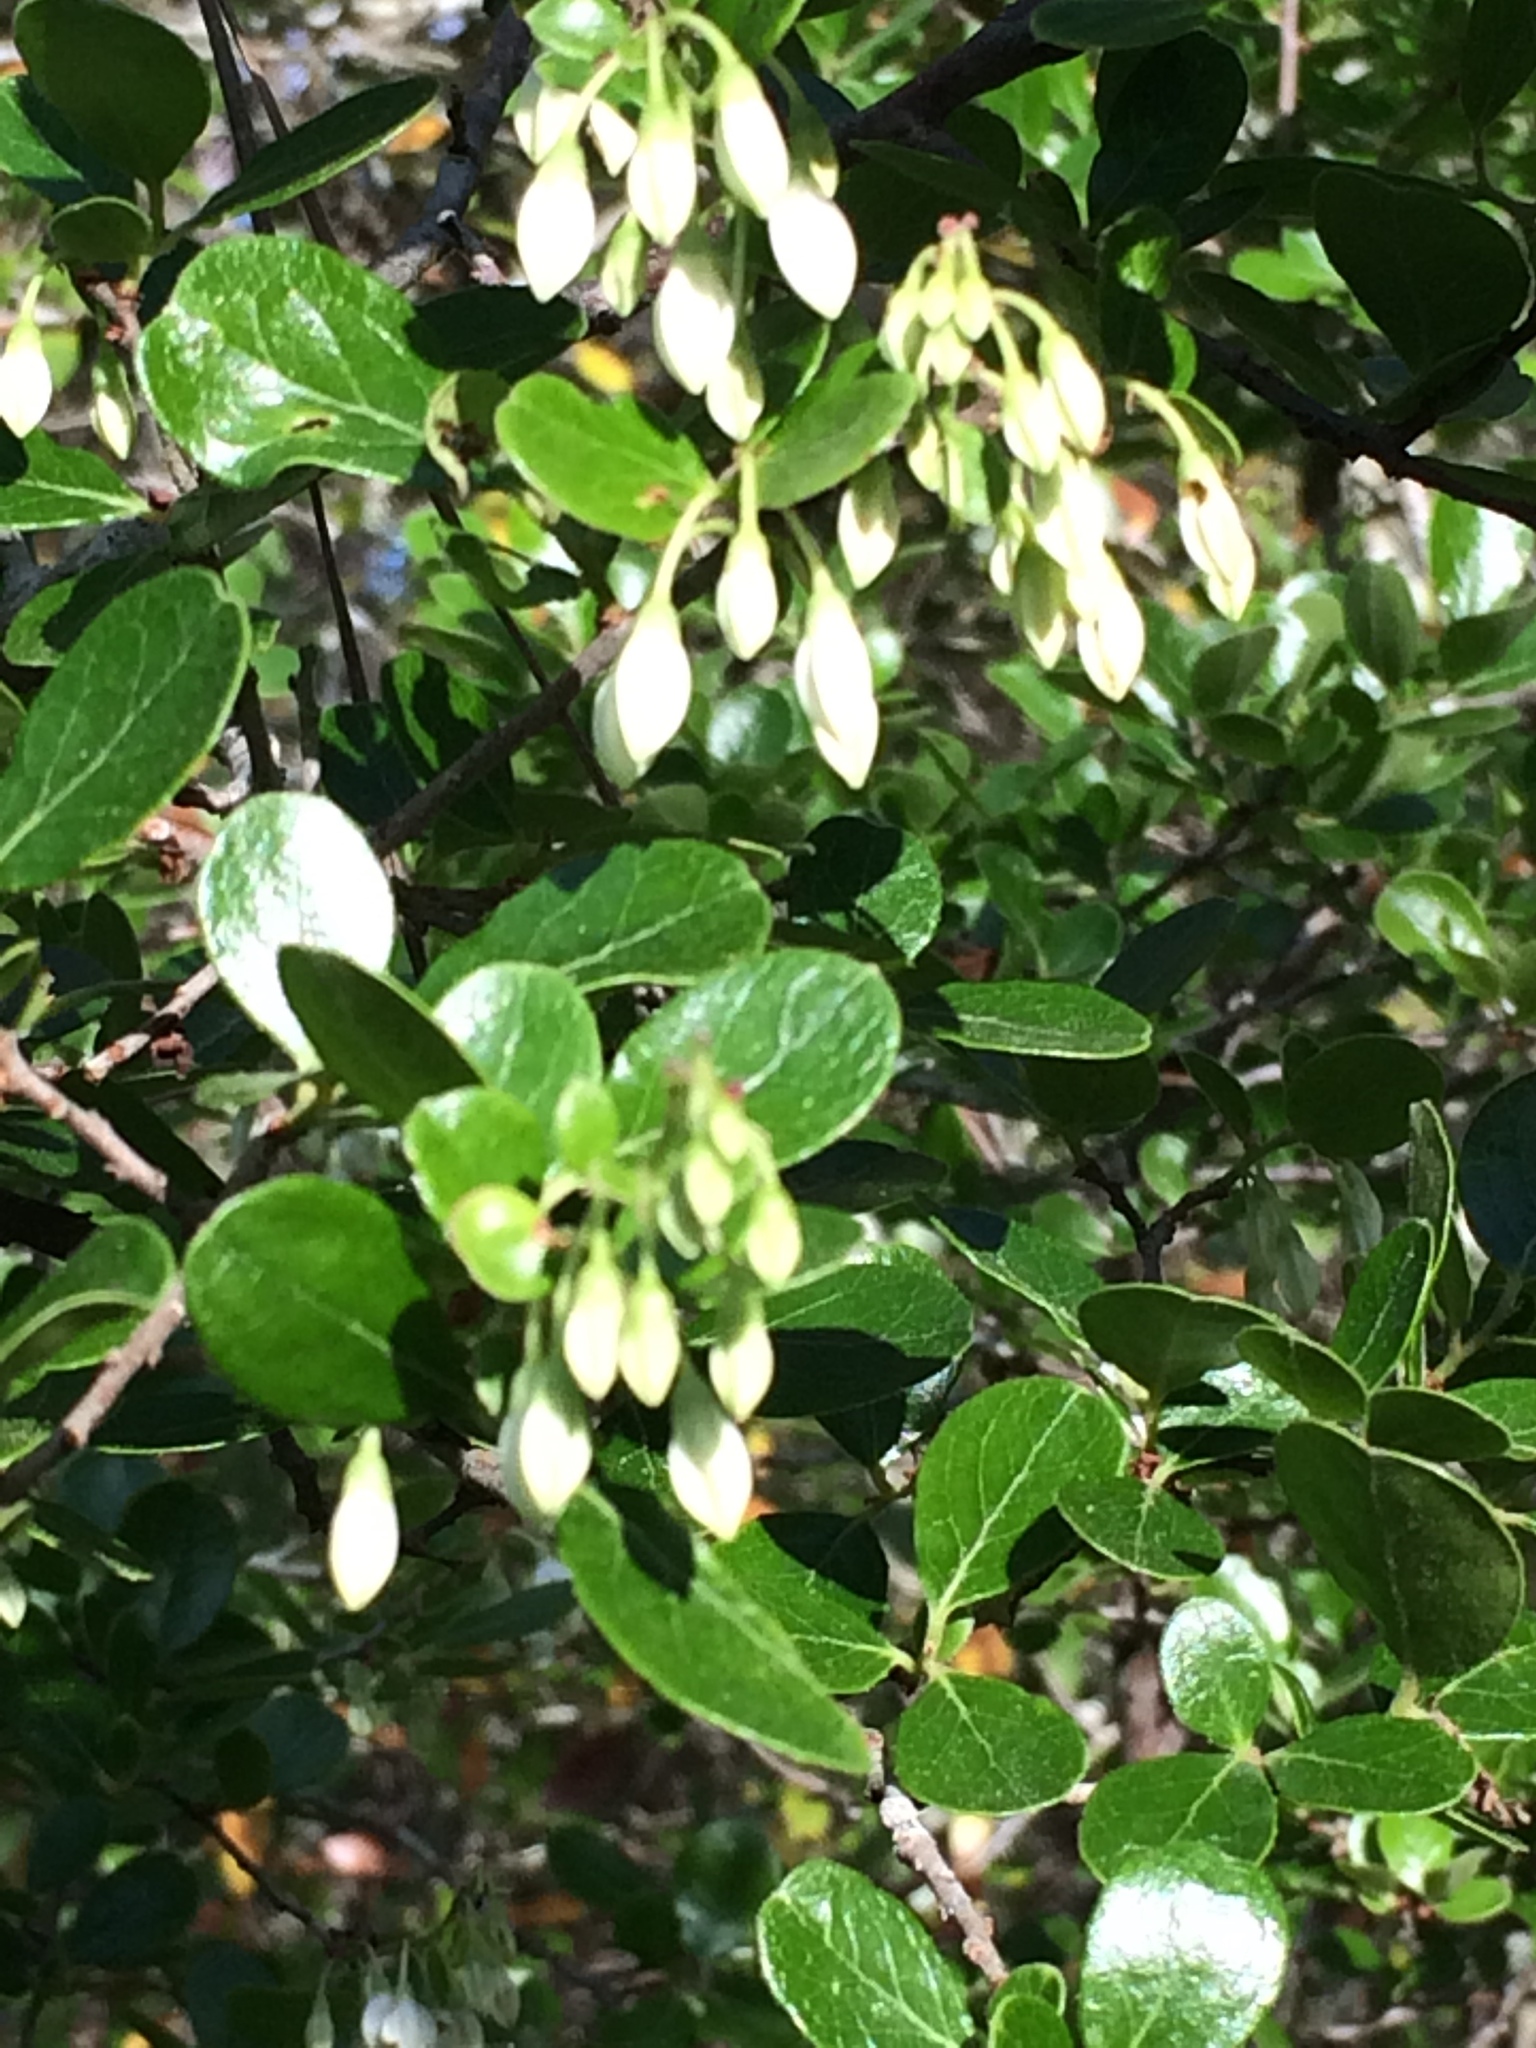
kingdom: Plantae
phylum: Tracheophyta
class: Magnoliopsida
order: Ericales
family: Ericaceae
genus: Vaccinium
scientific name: Vaccinium arboreum
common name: Farkleberry
